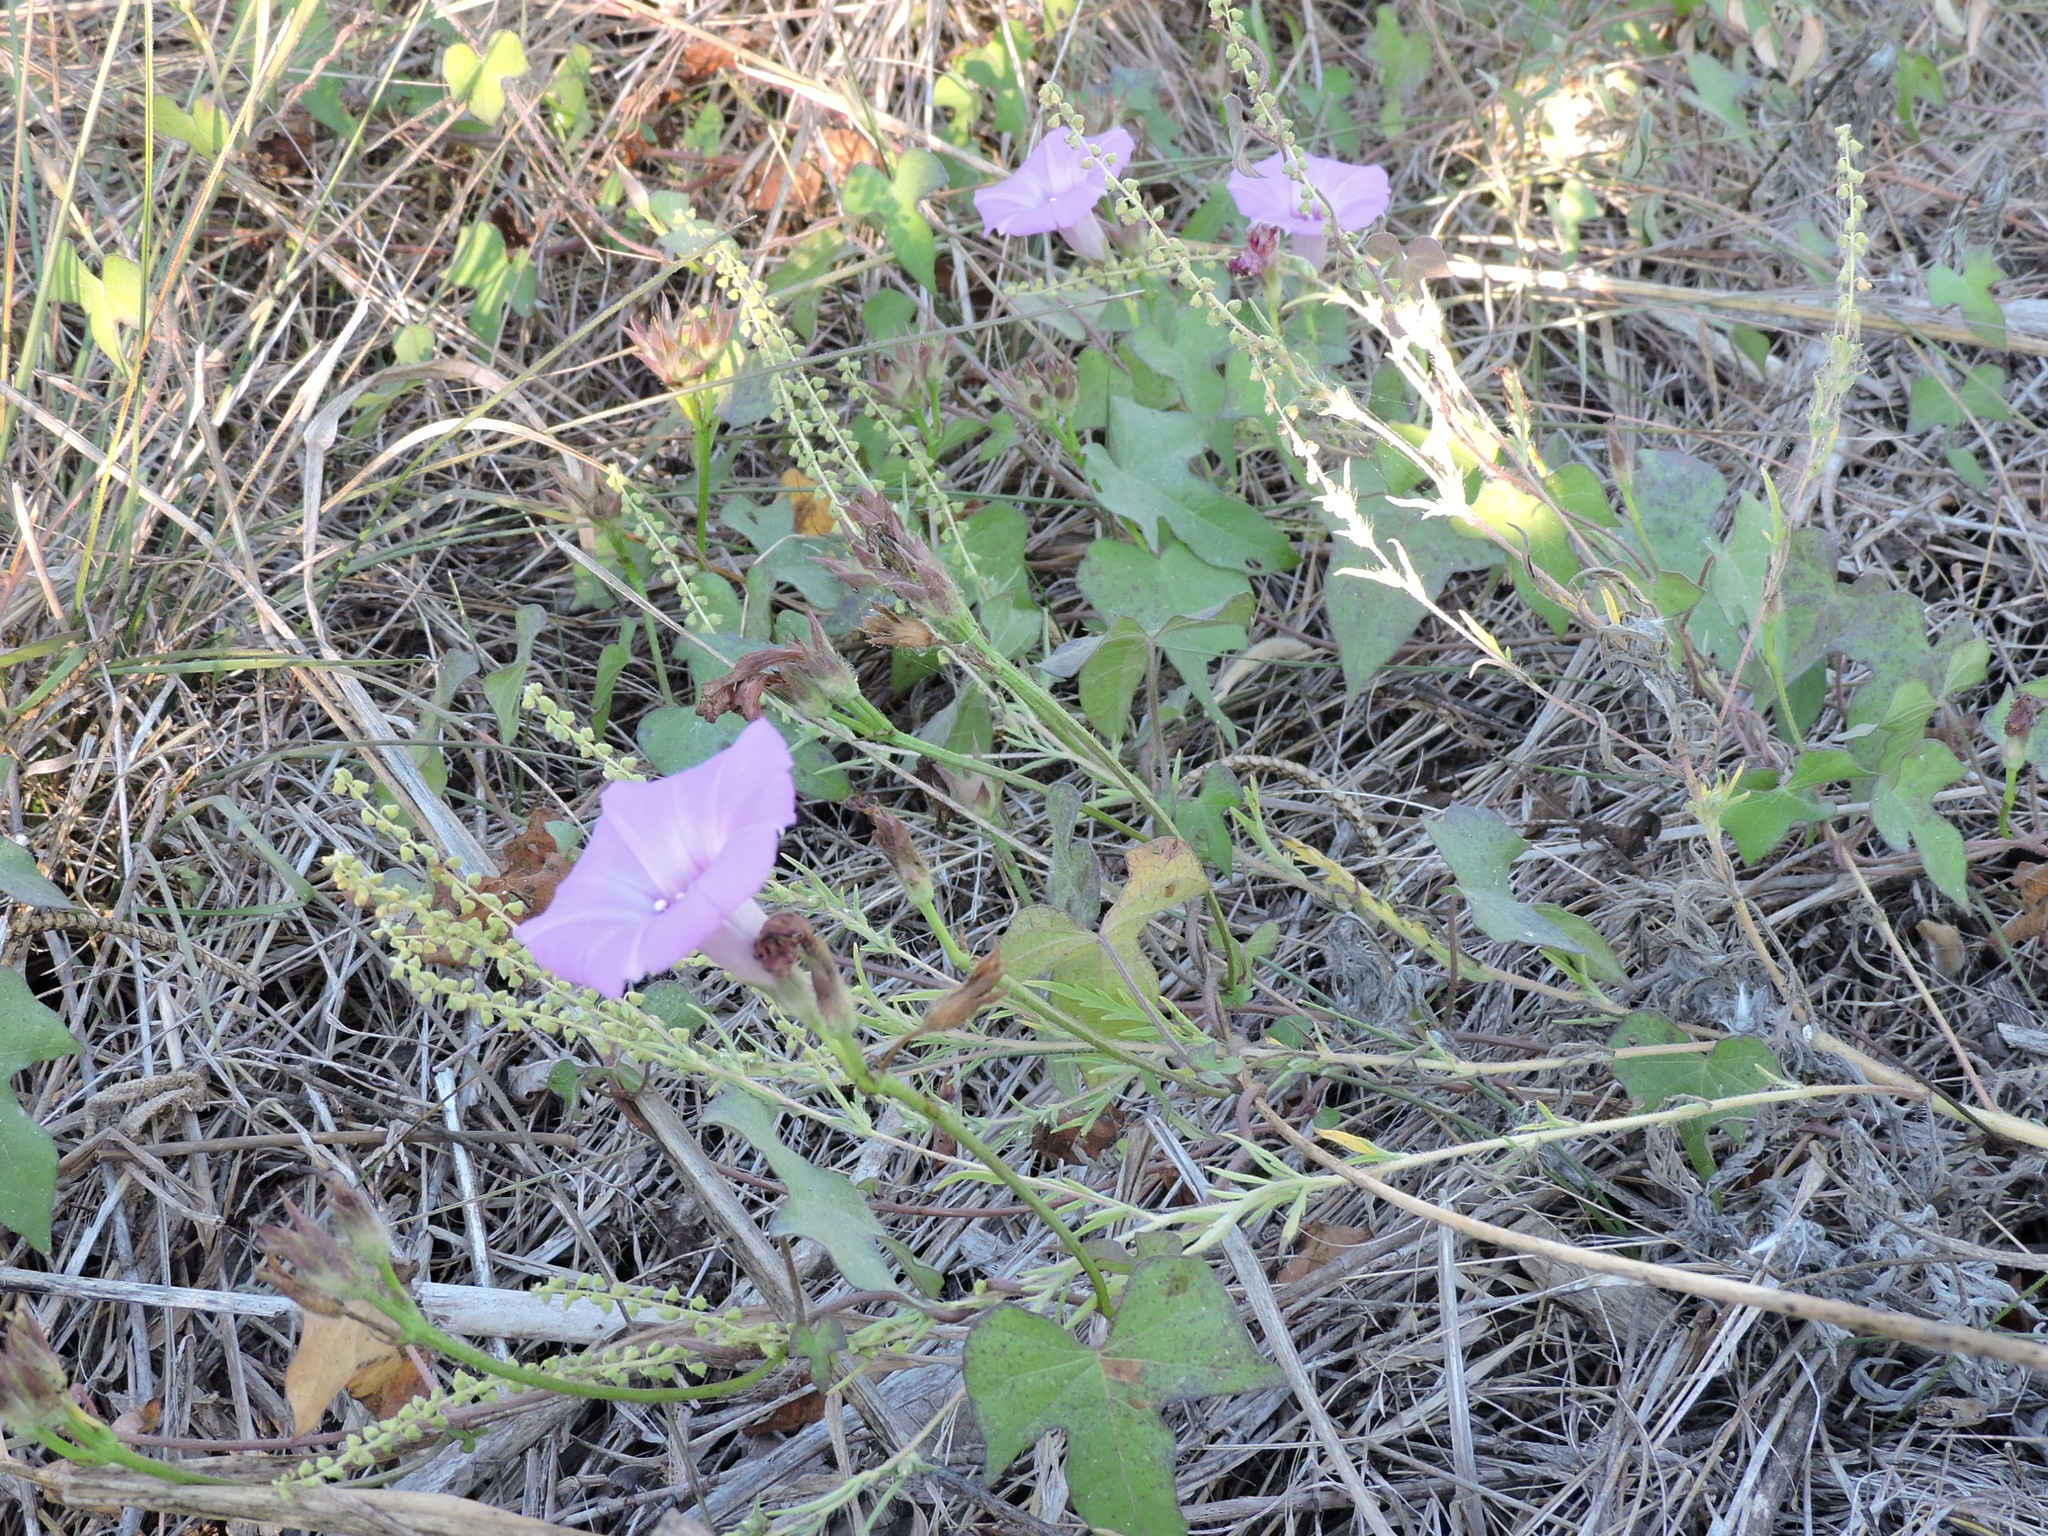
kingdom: Plantae
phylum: Tracheophyta
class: Magnoliopsida
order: Solanales
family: Convolvulaceae
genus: Ipomoea
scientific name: Ipomoea cordatotriloba
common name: Cotton morning glory
